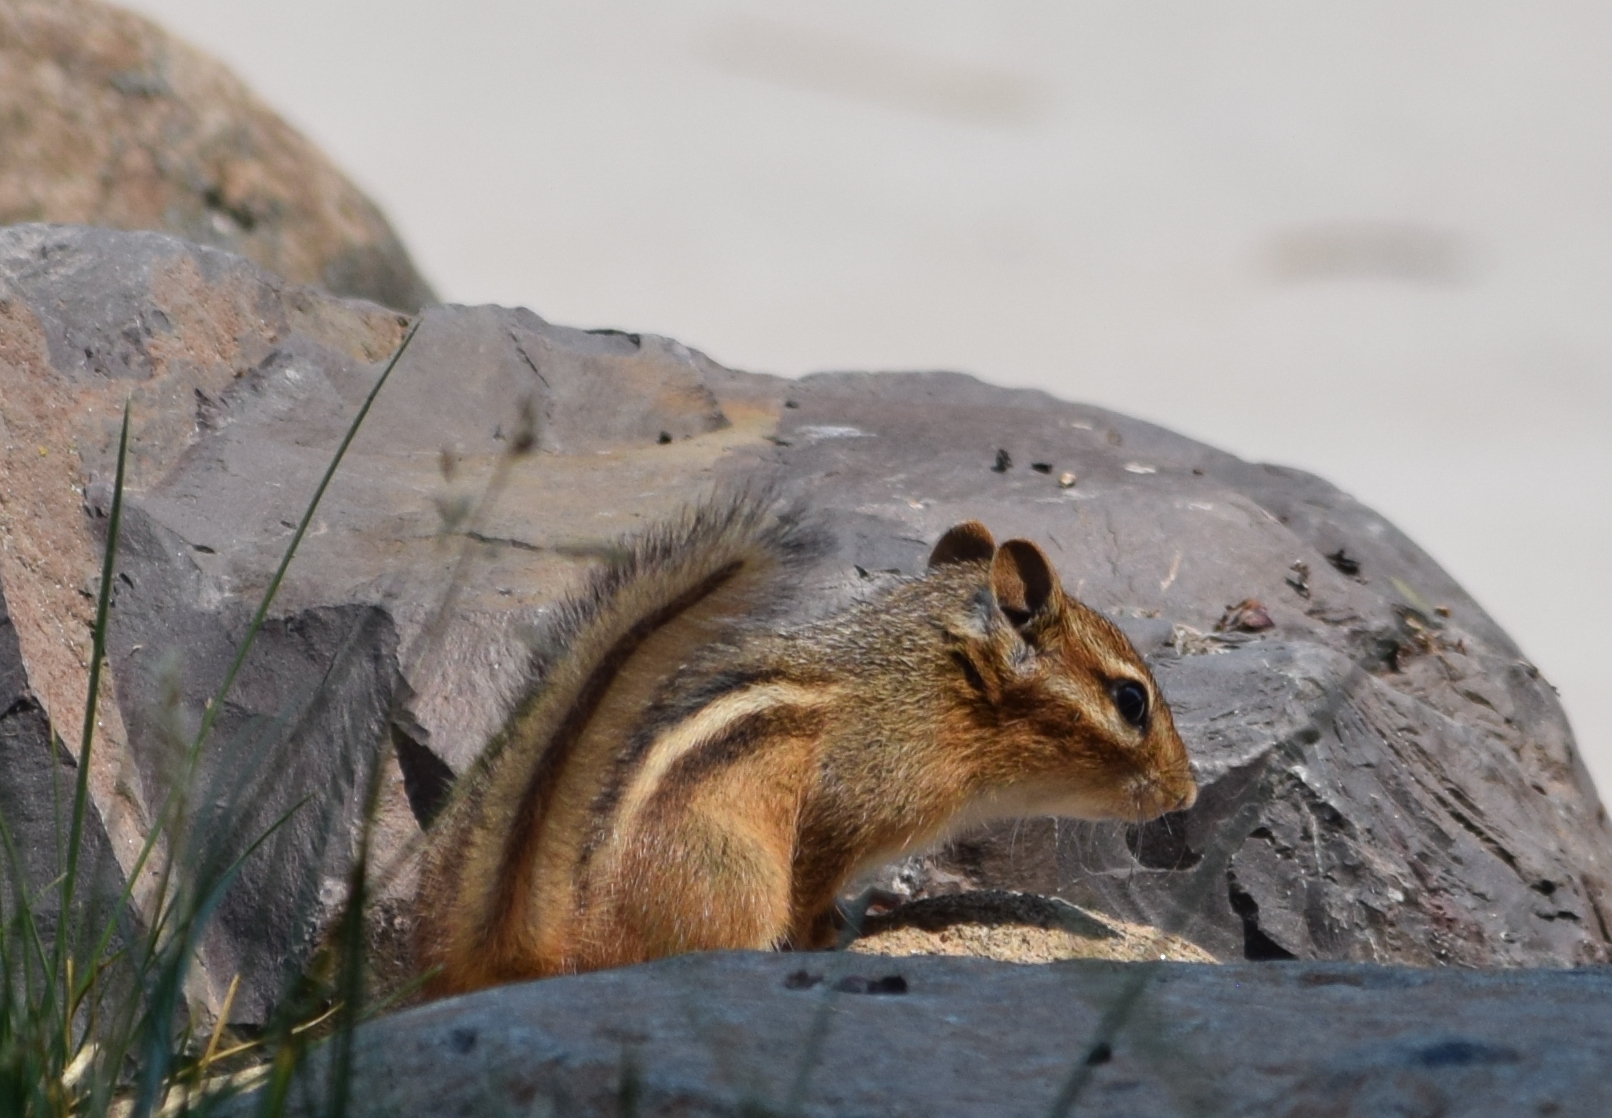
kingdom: Animalia
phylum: Chordata
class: Mammalia
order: Rodentia
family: Sciuridae
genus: Tamias
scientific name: Tamias striatus
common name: Eastern chipmunk
